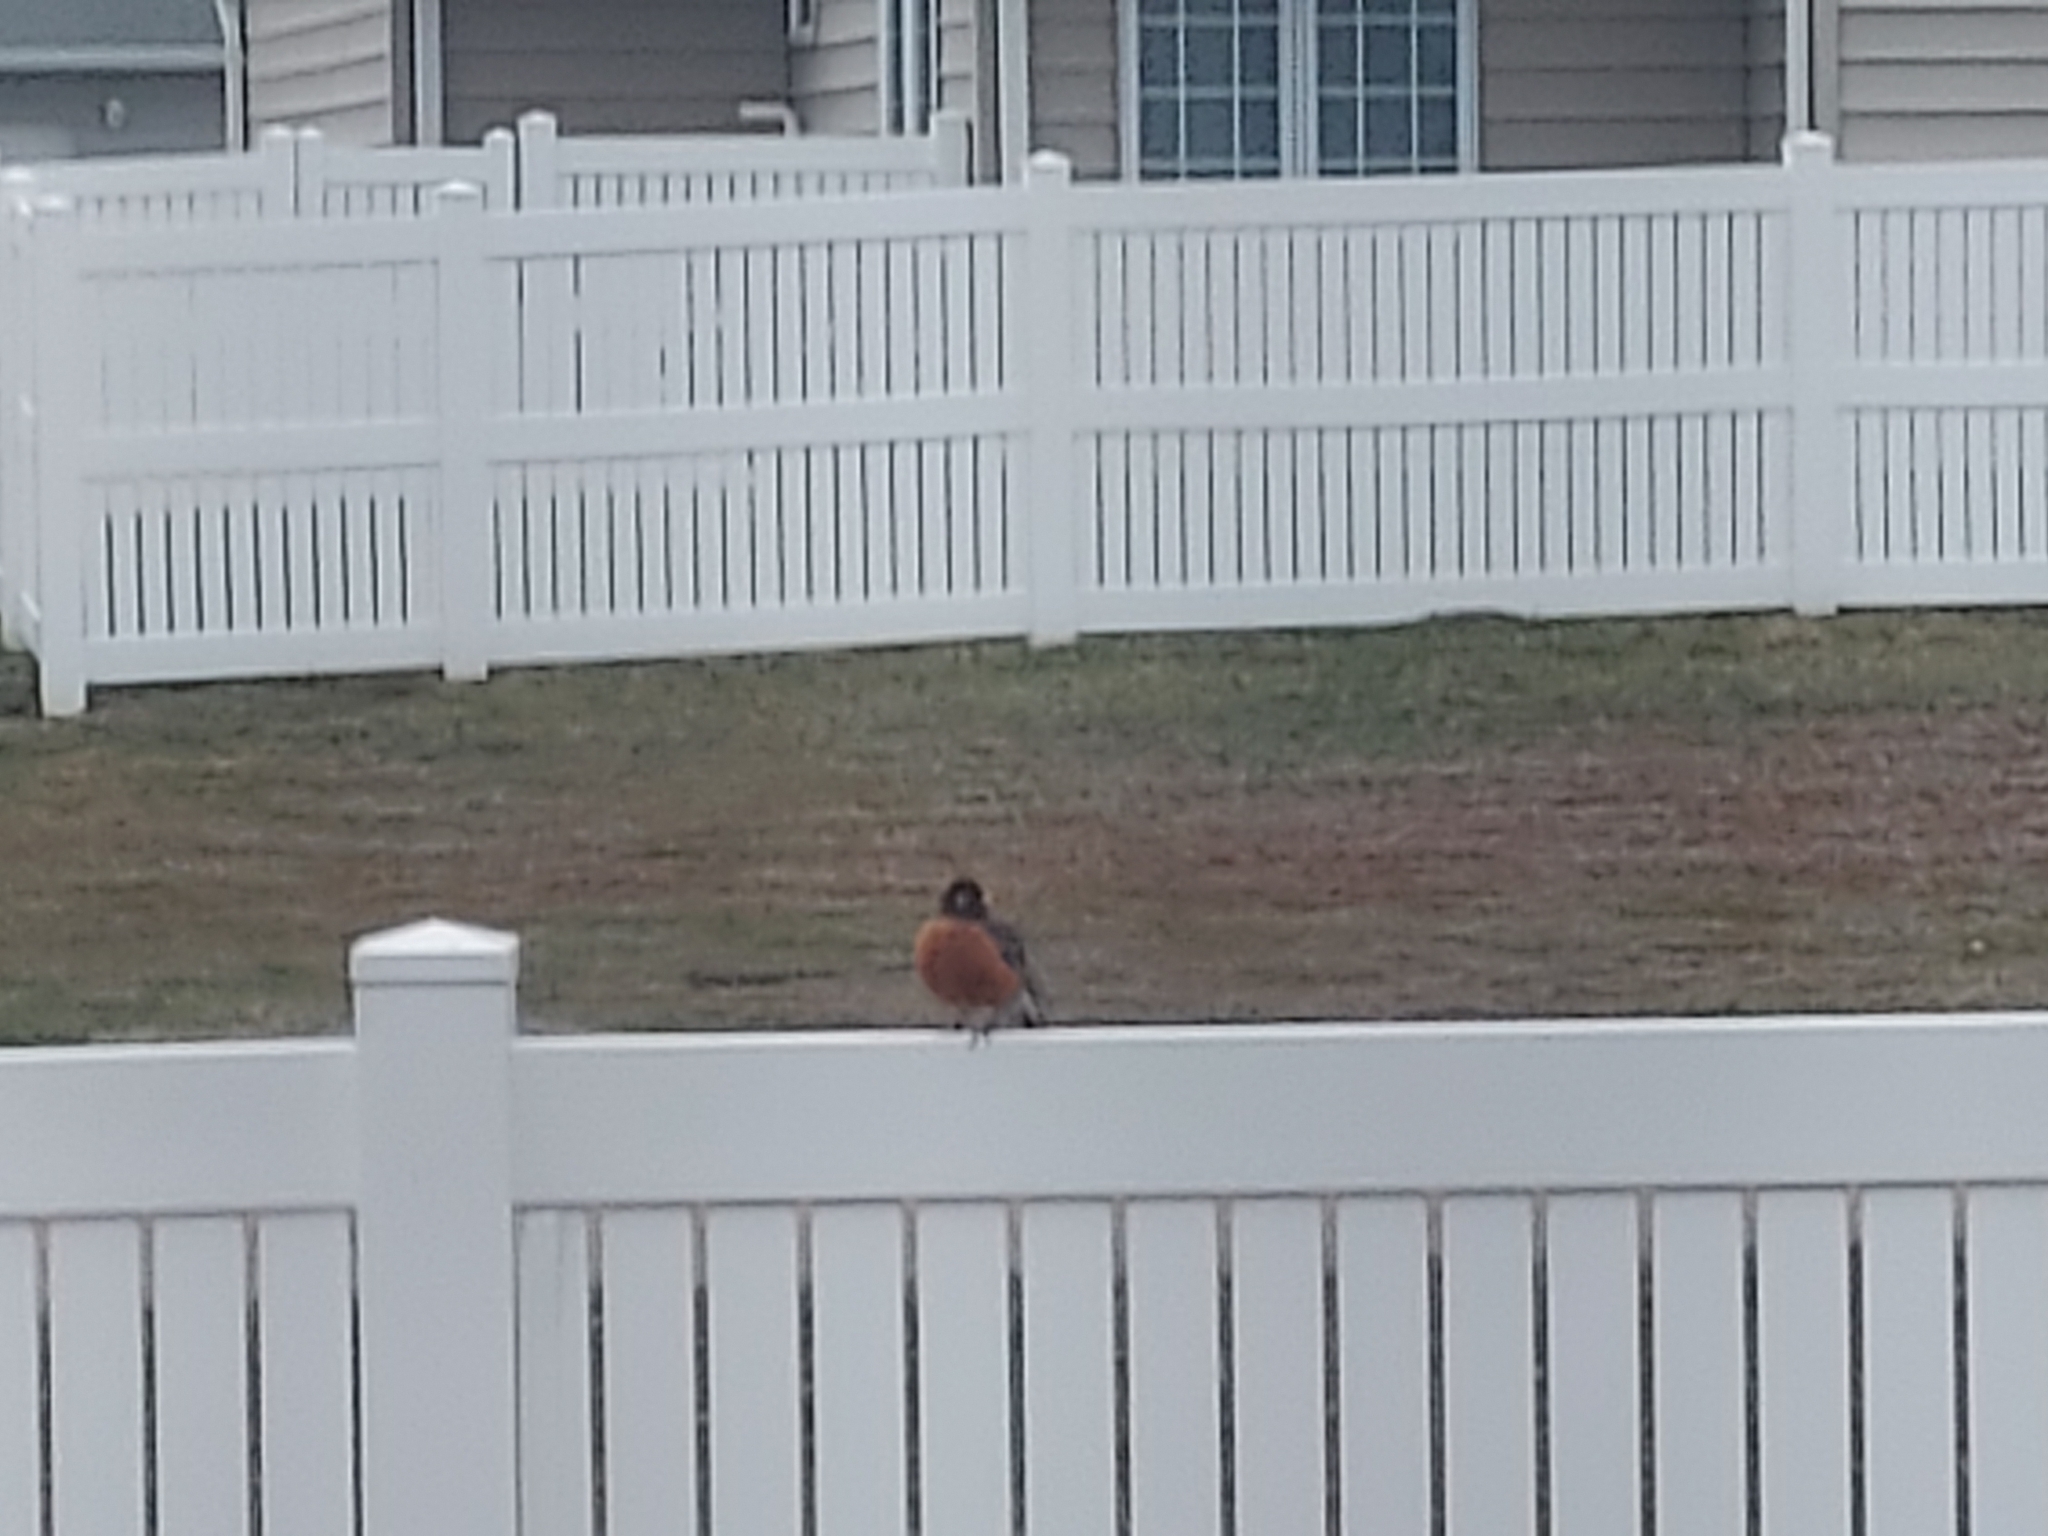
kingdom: Animalia
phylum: Chordata
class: Aves
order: Passeriformes
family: Turdidae
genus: Turdus
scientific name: Turdus migratorius
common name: American robin
